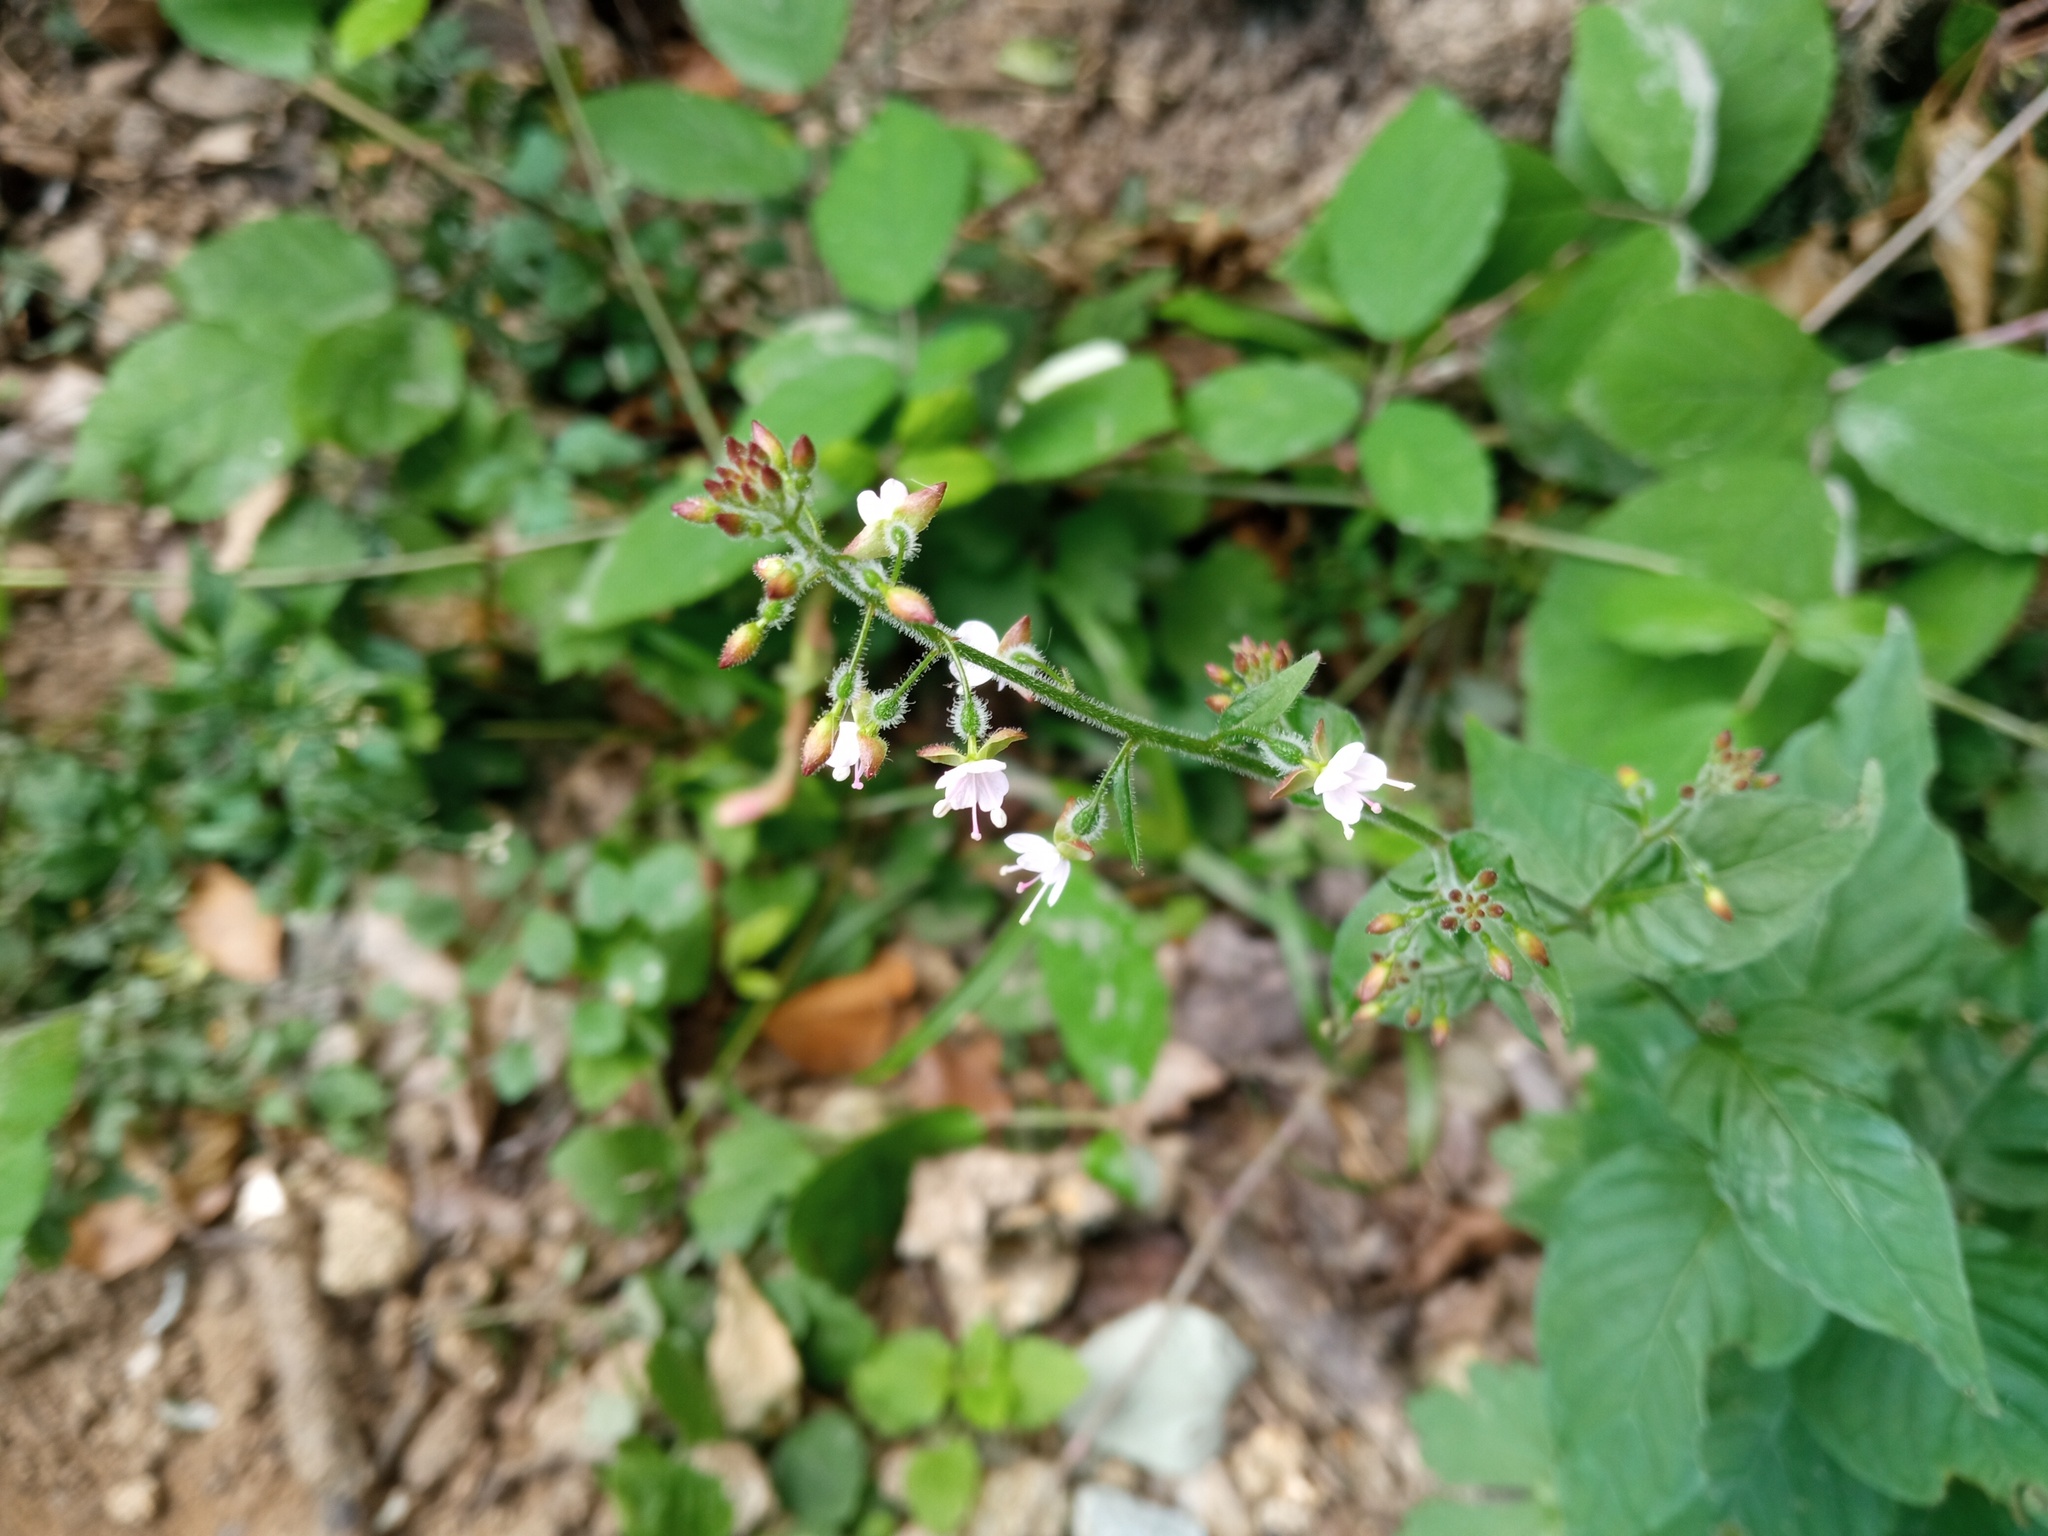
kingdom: Plantae
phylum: Tracheophyta
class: Magnoliopsida
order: Myrtales
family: Onagraceae
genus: Circaea
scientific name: Circaea lutetiana
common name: Enchanter's-nightshade
